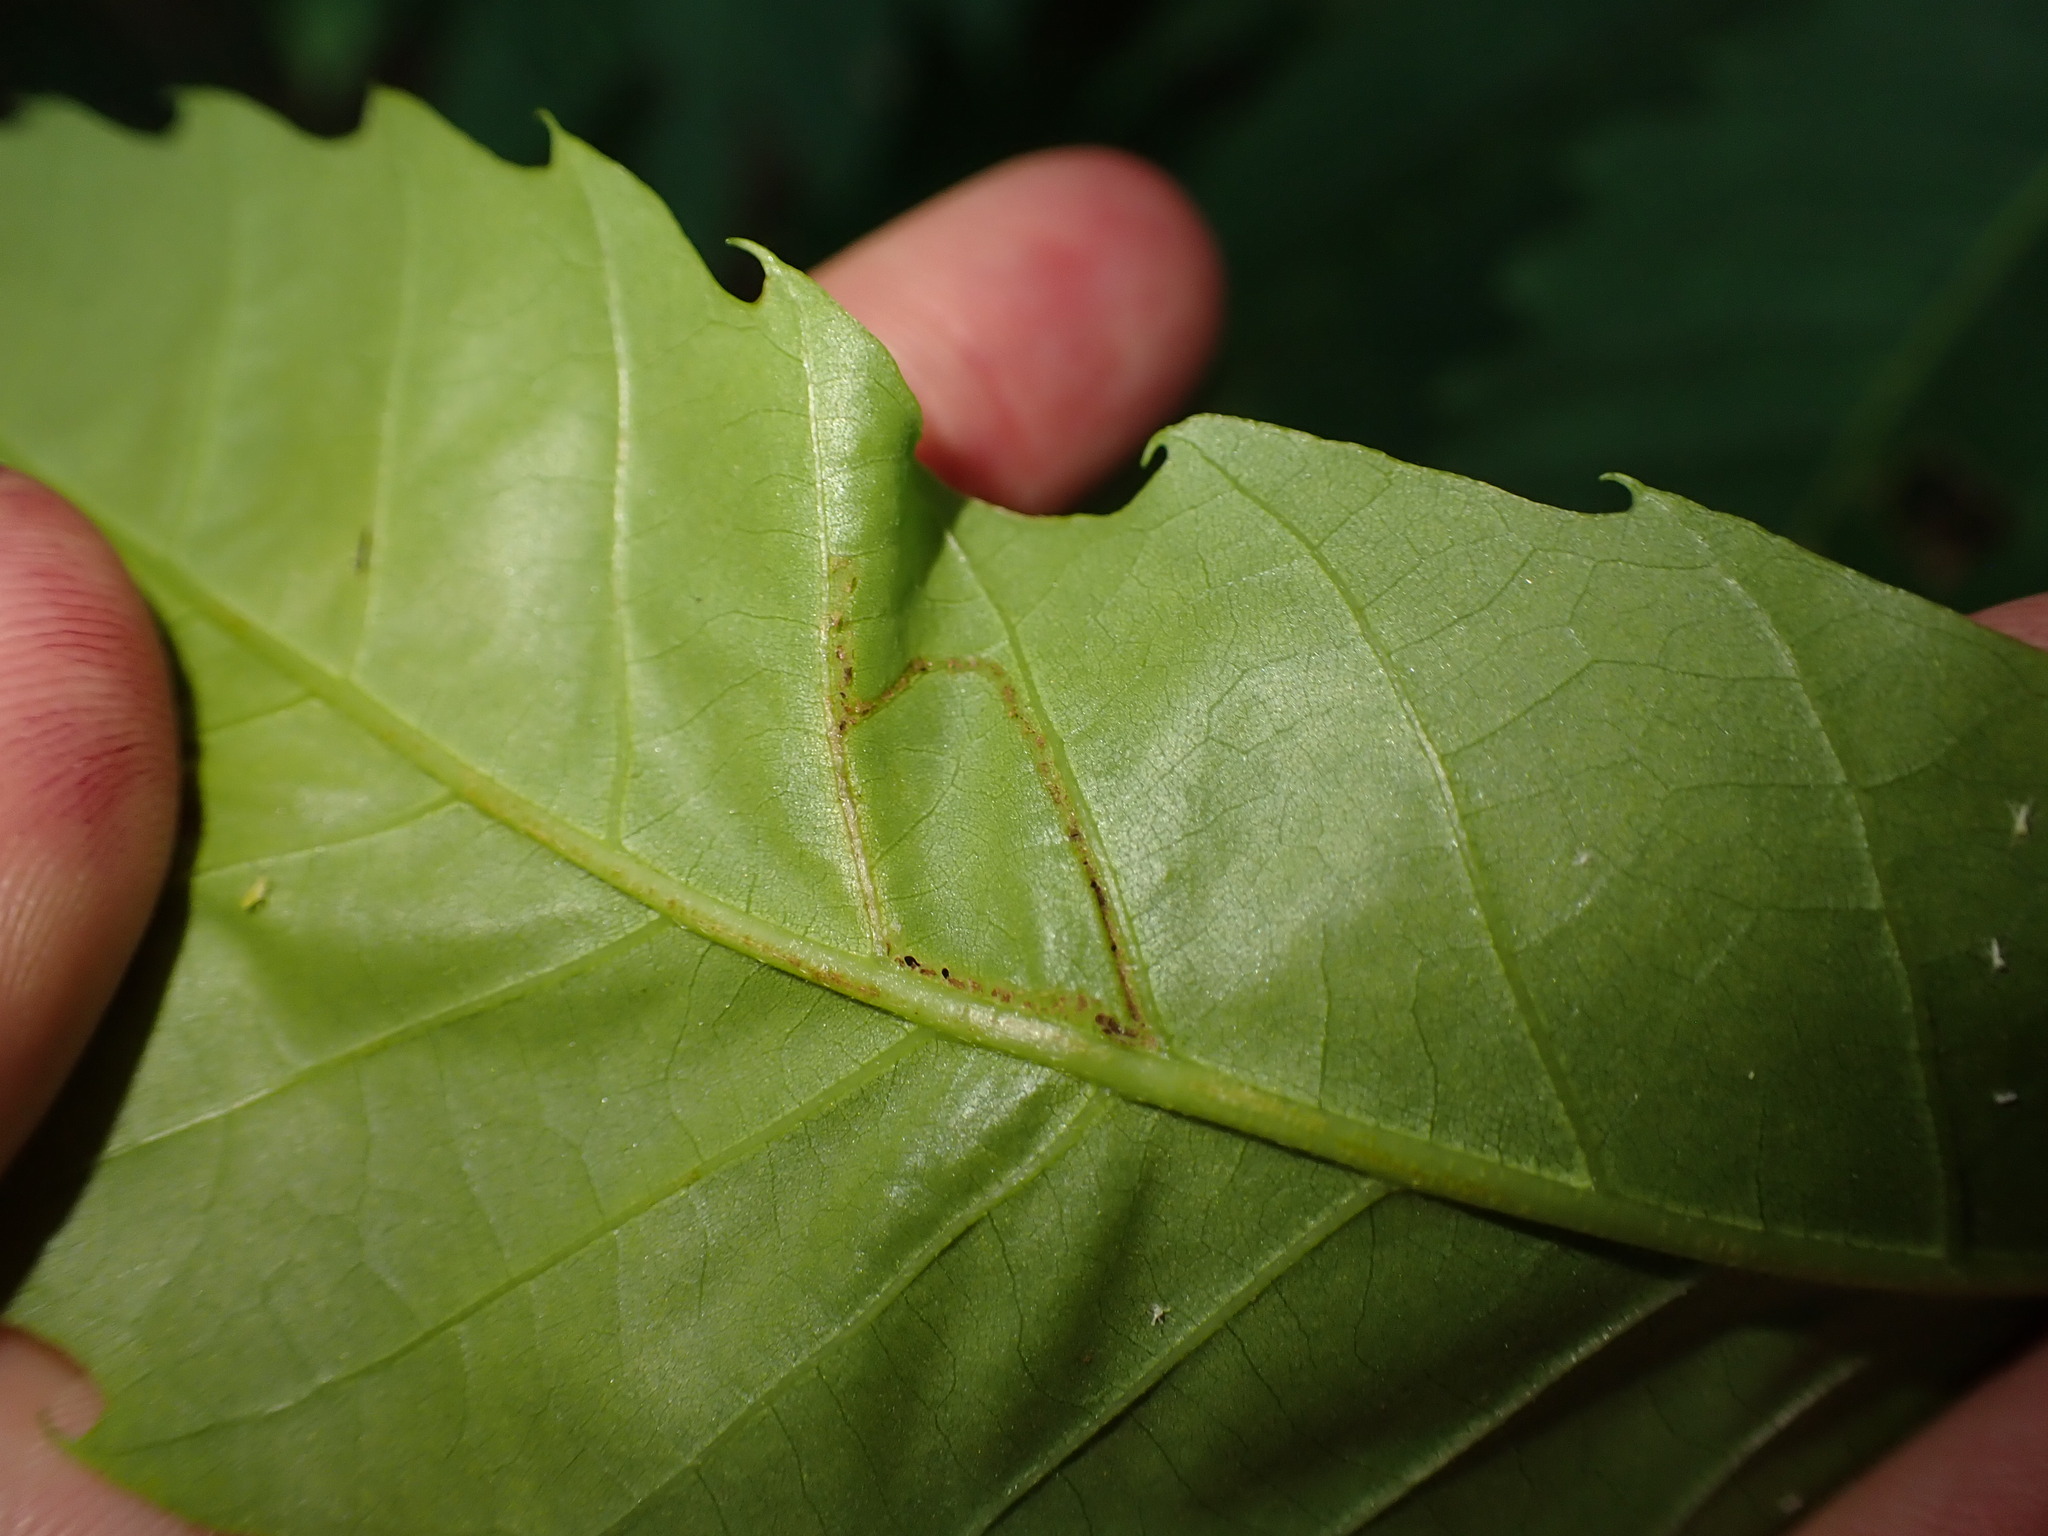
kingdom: Animalia
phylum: Arthropoda
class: Insecta
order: Lepidoptera
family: Gracillariidae
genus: Neurobathra
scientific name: Neurobathra strigifinitella
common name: Finite-channeled leafminer moth
